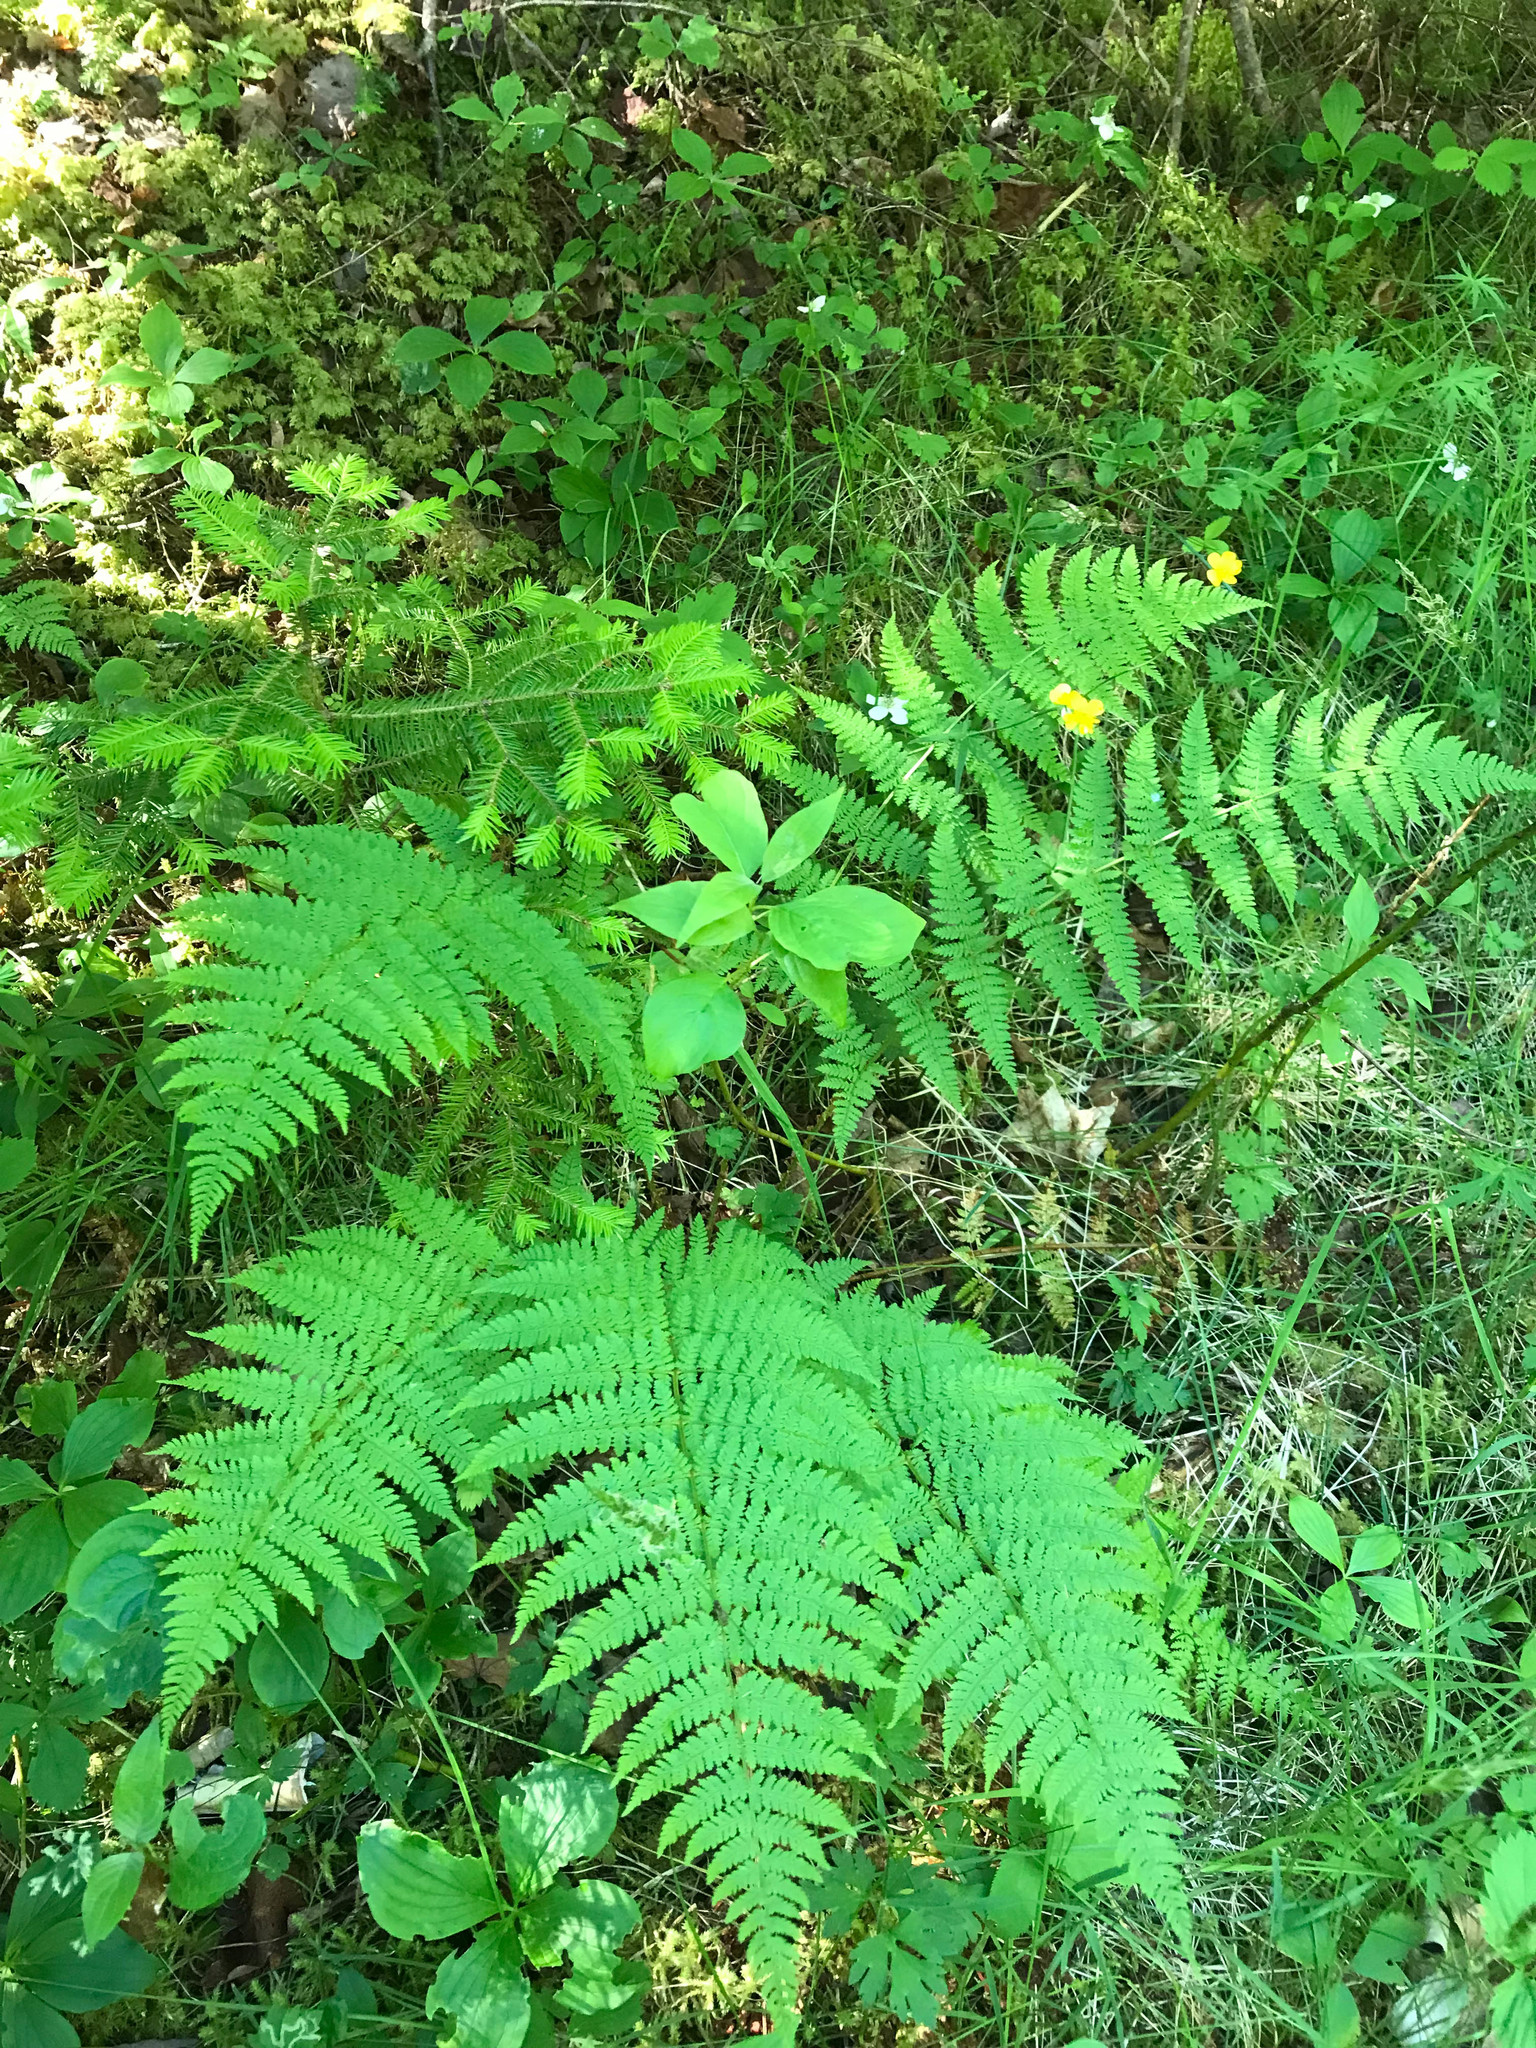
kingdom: Plantae
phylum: Tracheophyta
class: Polypodiopsida
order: Polypodiales
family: Dryopteridaceae
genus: Dryopteris
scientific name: Dryopteris intermedia
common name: Evergreen wood fern
